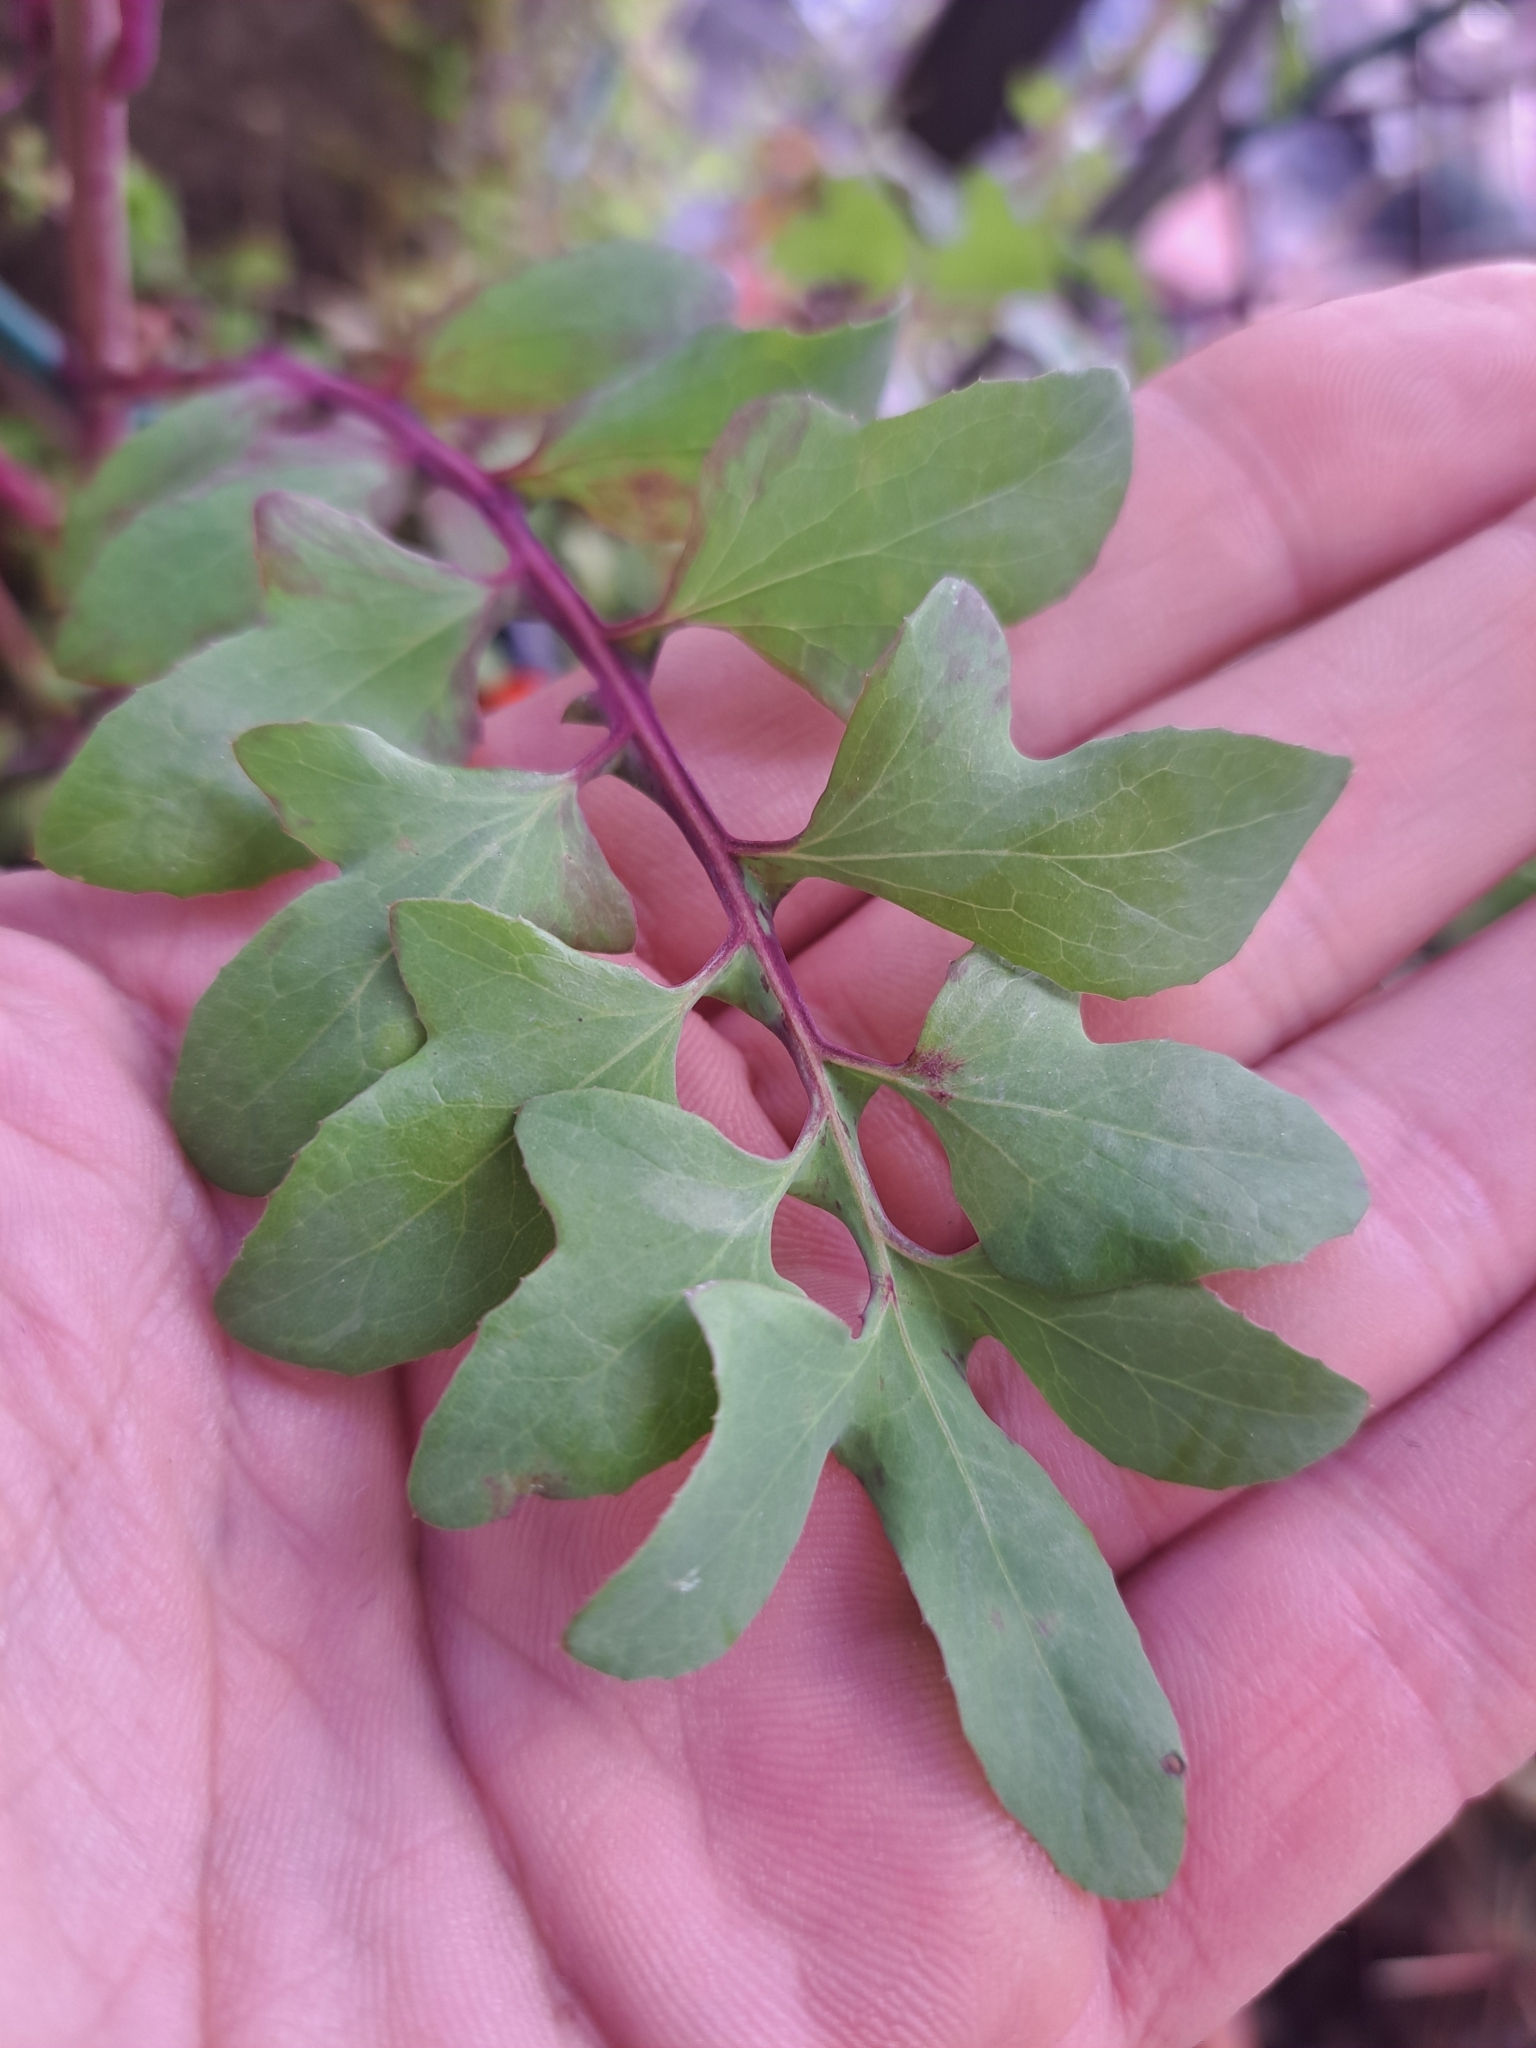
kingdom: Plantae
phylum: Tracheophyta
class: Magnoliopsida
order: Asterales
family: Asteraceae
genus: Sonchus
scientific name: Sonchus tenerrimus
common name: Clammy sowthistle
